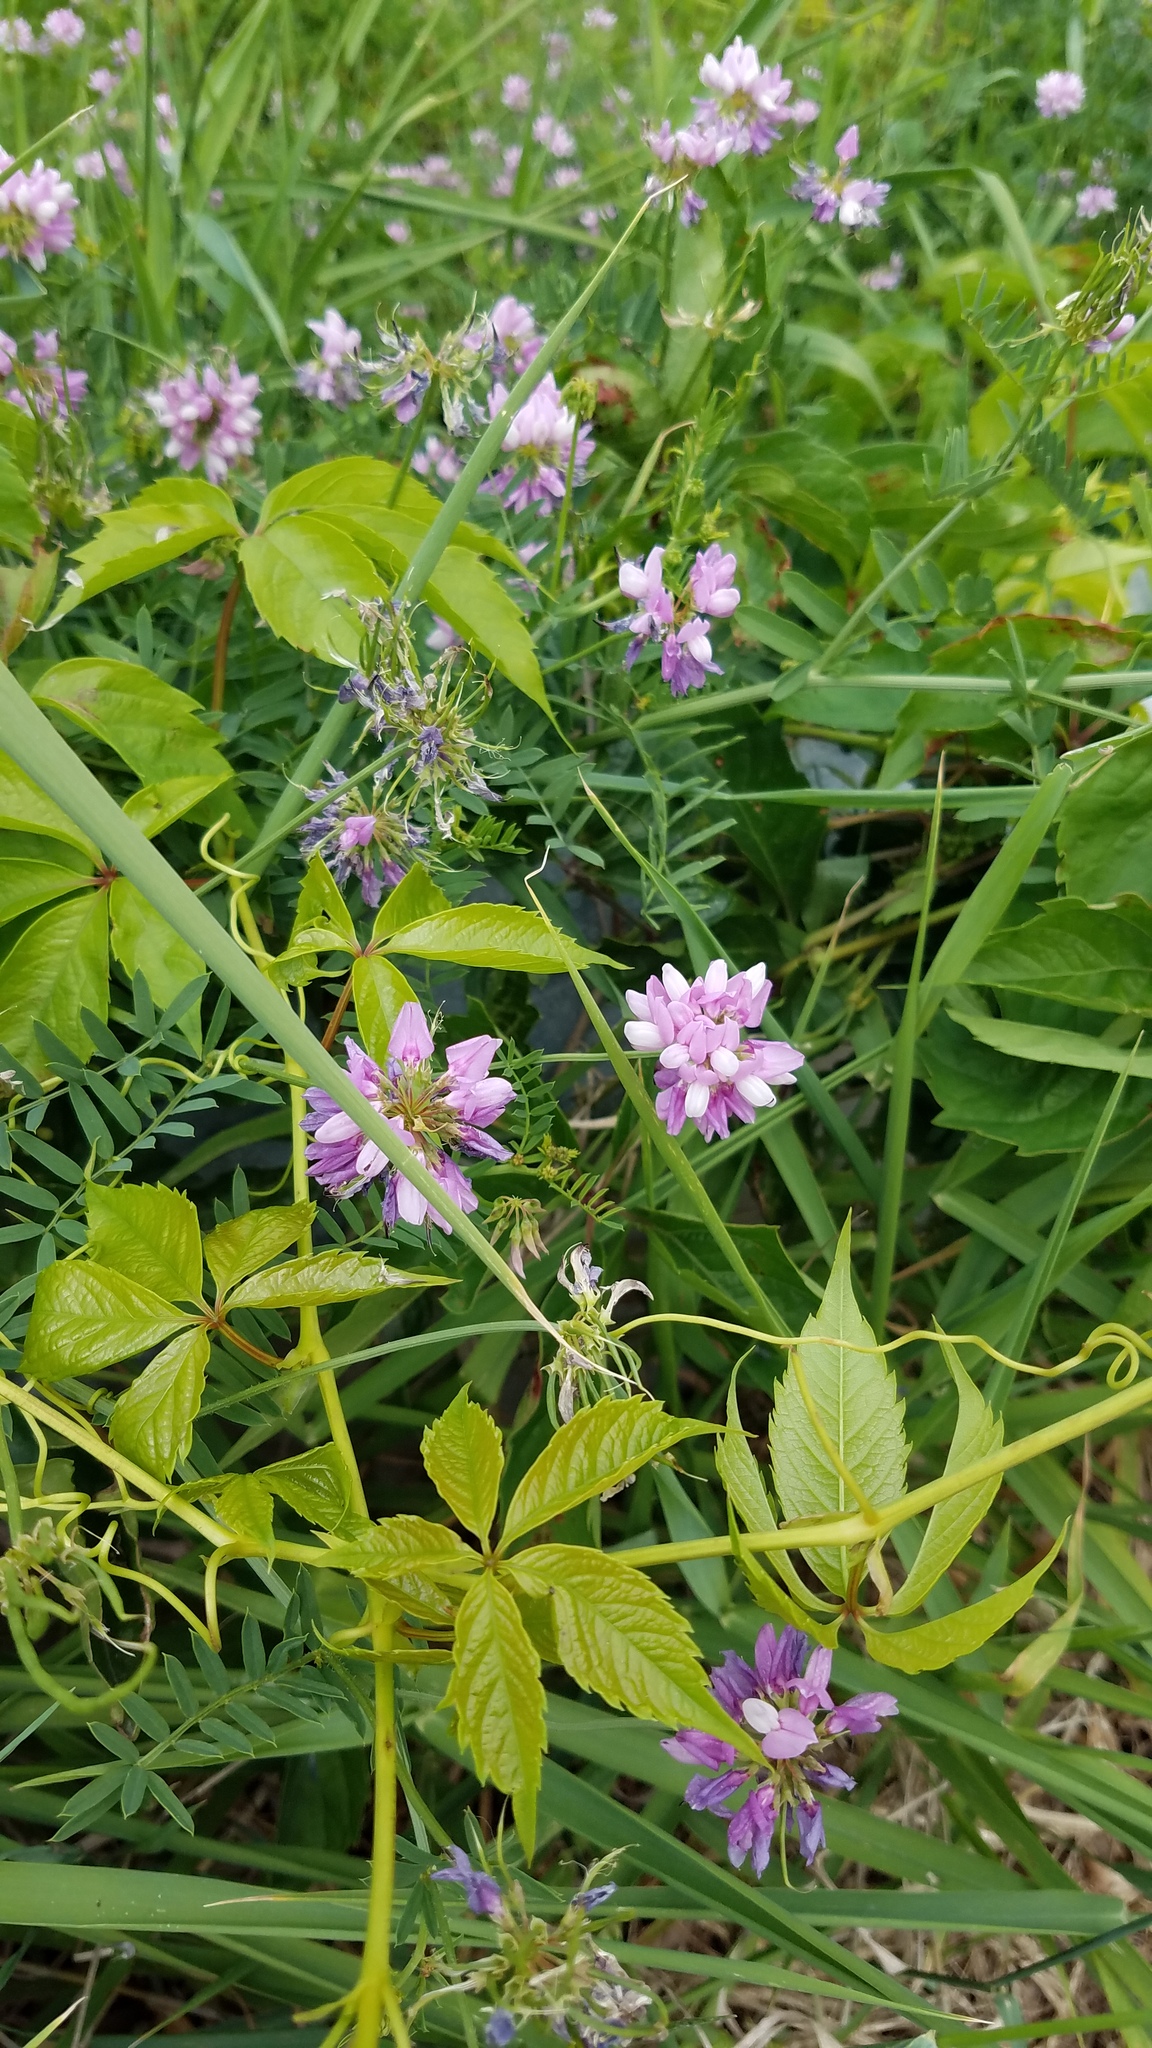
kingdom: Plantae
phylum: Tracheophyta
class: Magnoliopsida
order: Fabales
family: Fabaceae
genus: Coronilla
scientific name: Coronilla varia
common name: Crownvetch
